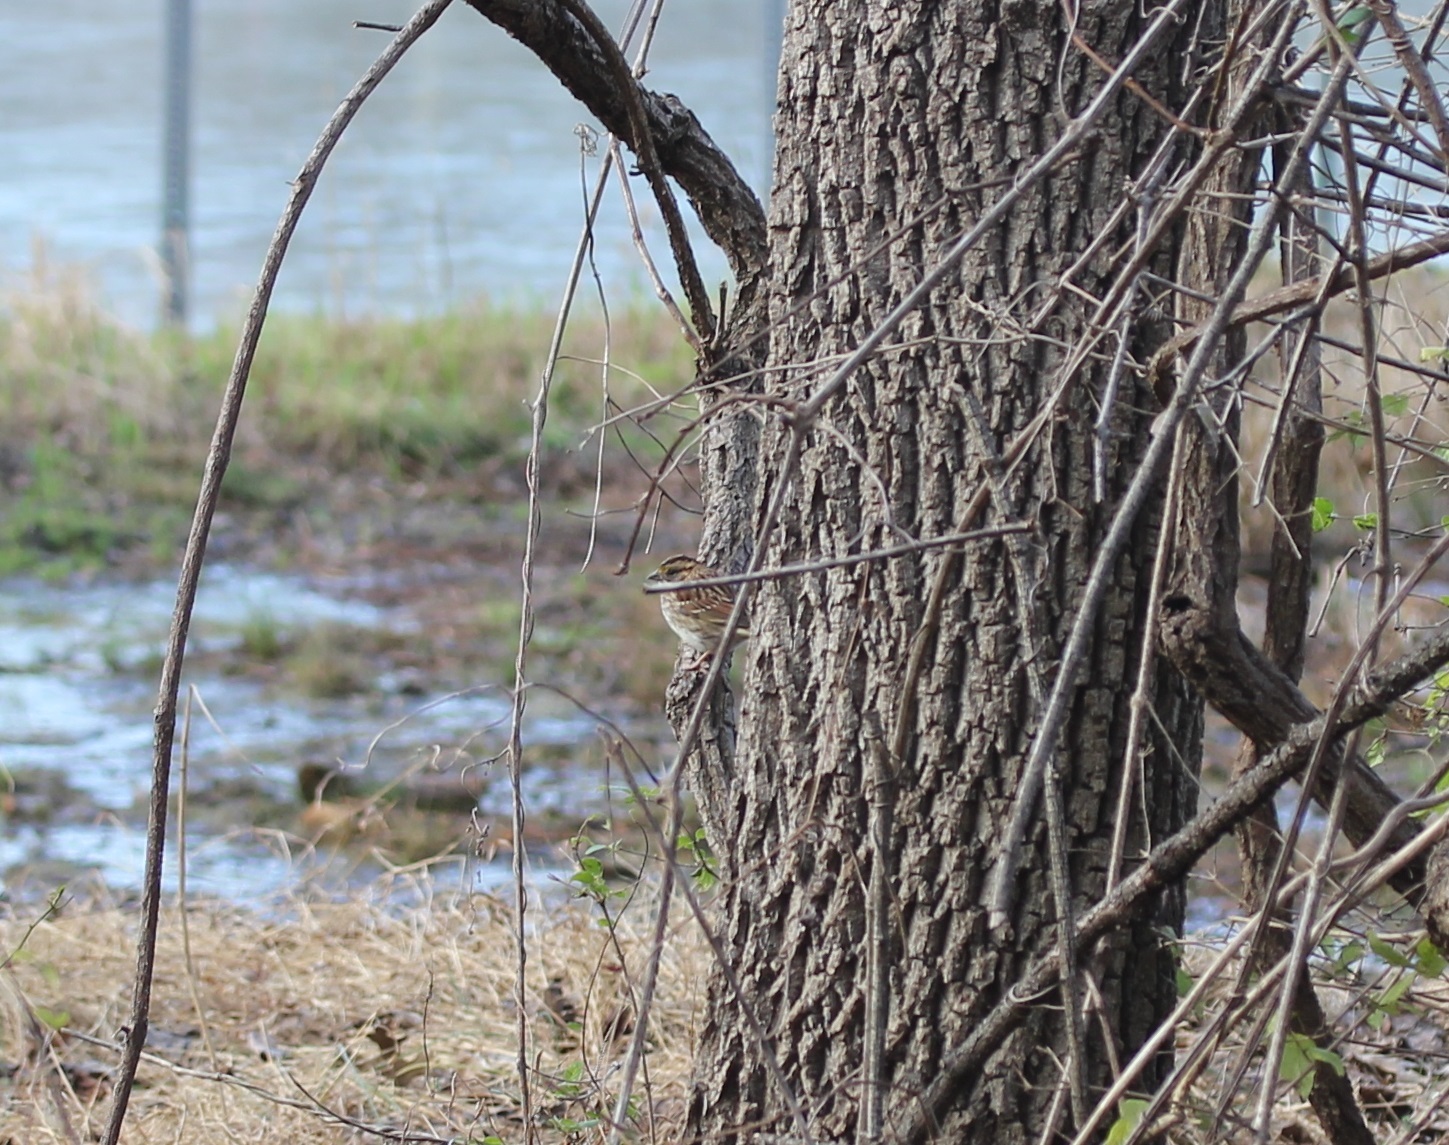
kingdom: Animalia
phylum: Chordata
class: Aves
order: Passeriformes
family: Passerellidae
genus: Zonotrichia
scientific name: Zonotrichia albicollis
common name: White-throated sparrow
